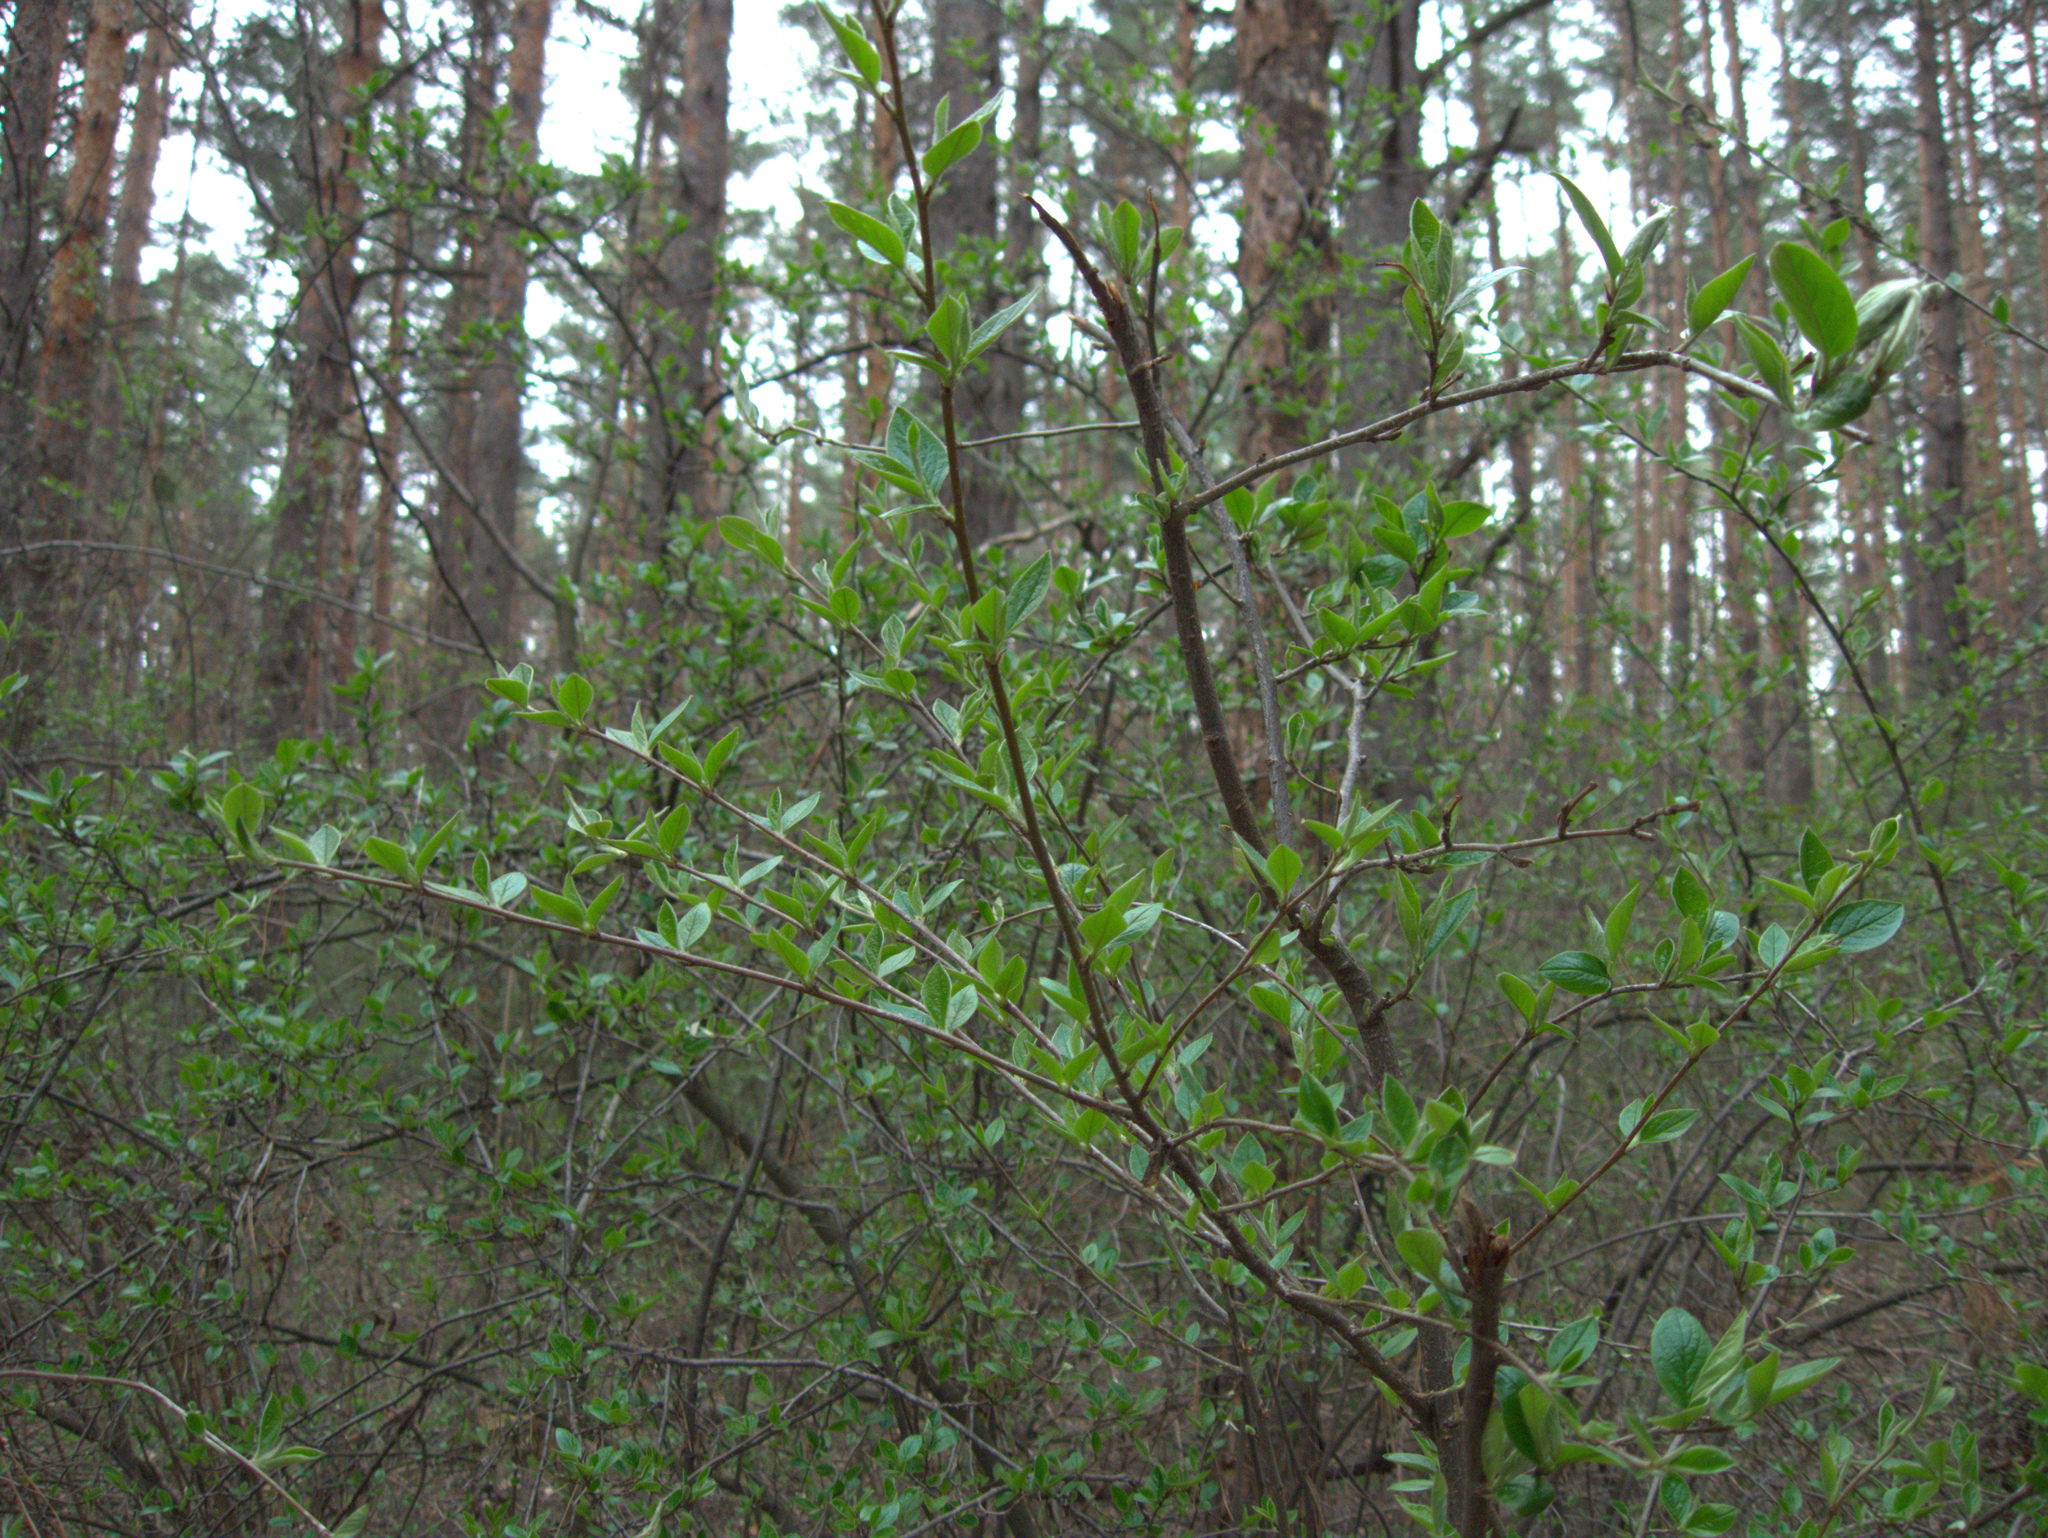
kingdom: Plantae
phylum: Tracheophyta
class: Magnoliopsida
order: Rosales
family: Rosaceae
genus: Cotoneaster
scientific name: Cotoneaster acutifolius
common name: Peking cotoneaster
